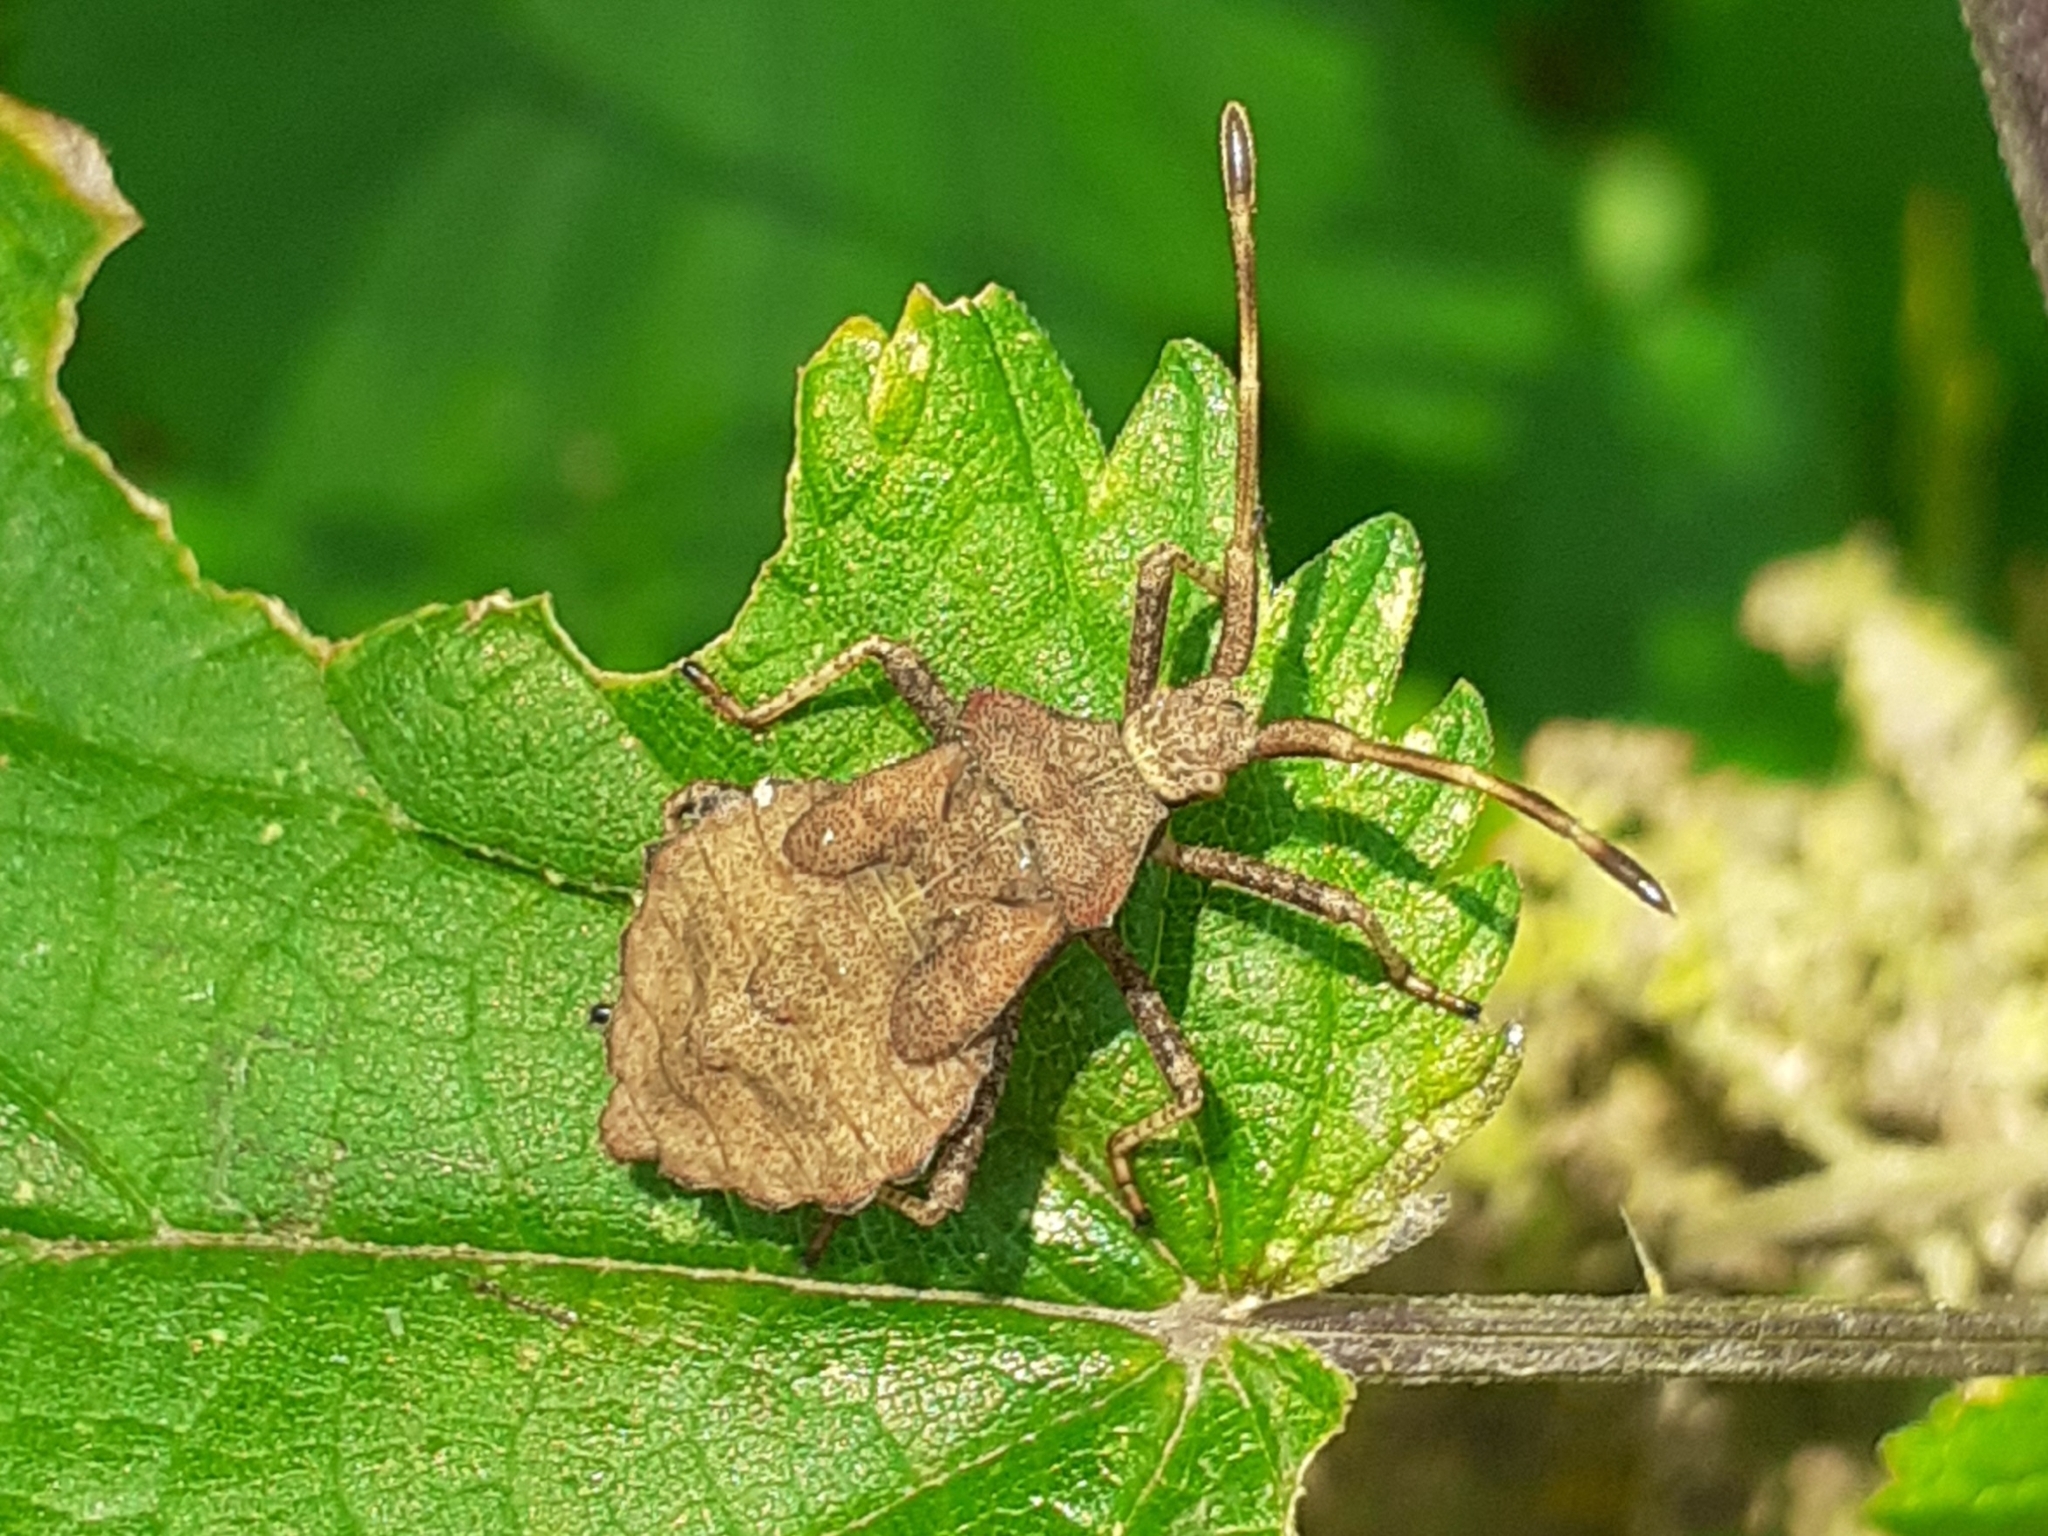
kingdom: Animalia
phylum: Arthropoda
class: Insecta
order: Hemiptera
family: Coreidae
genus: Coreus
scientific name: Coreus marginatus
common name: Dock bug
